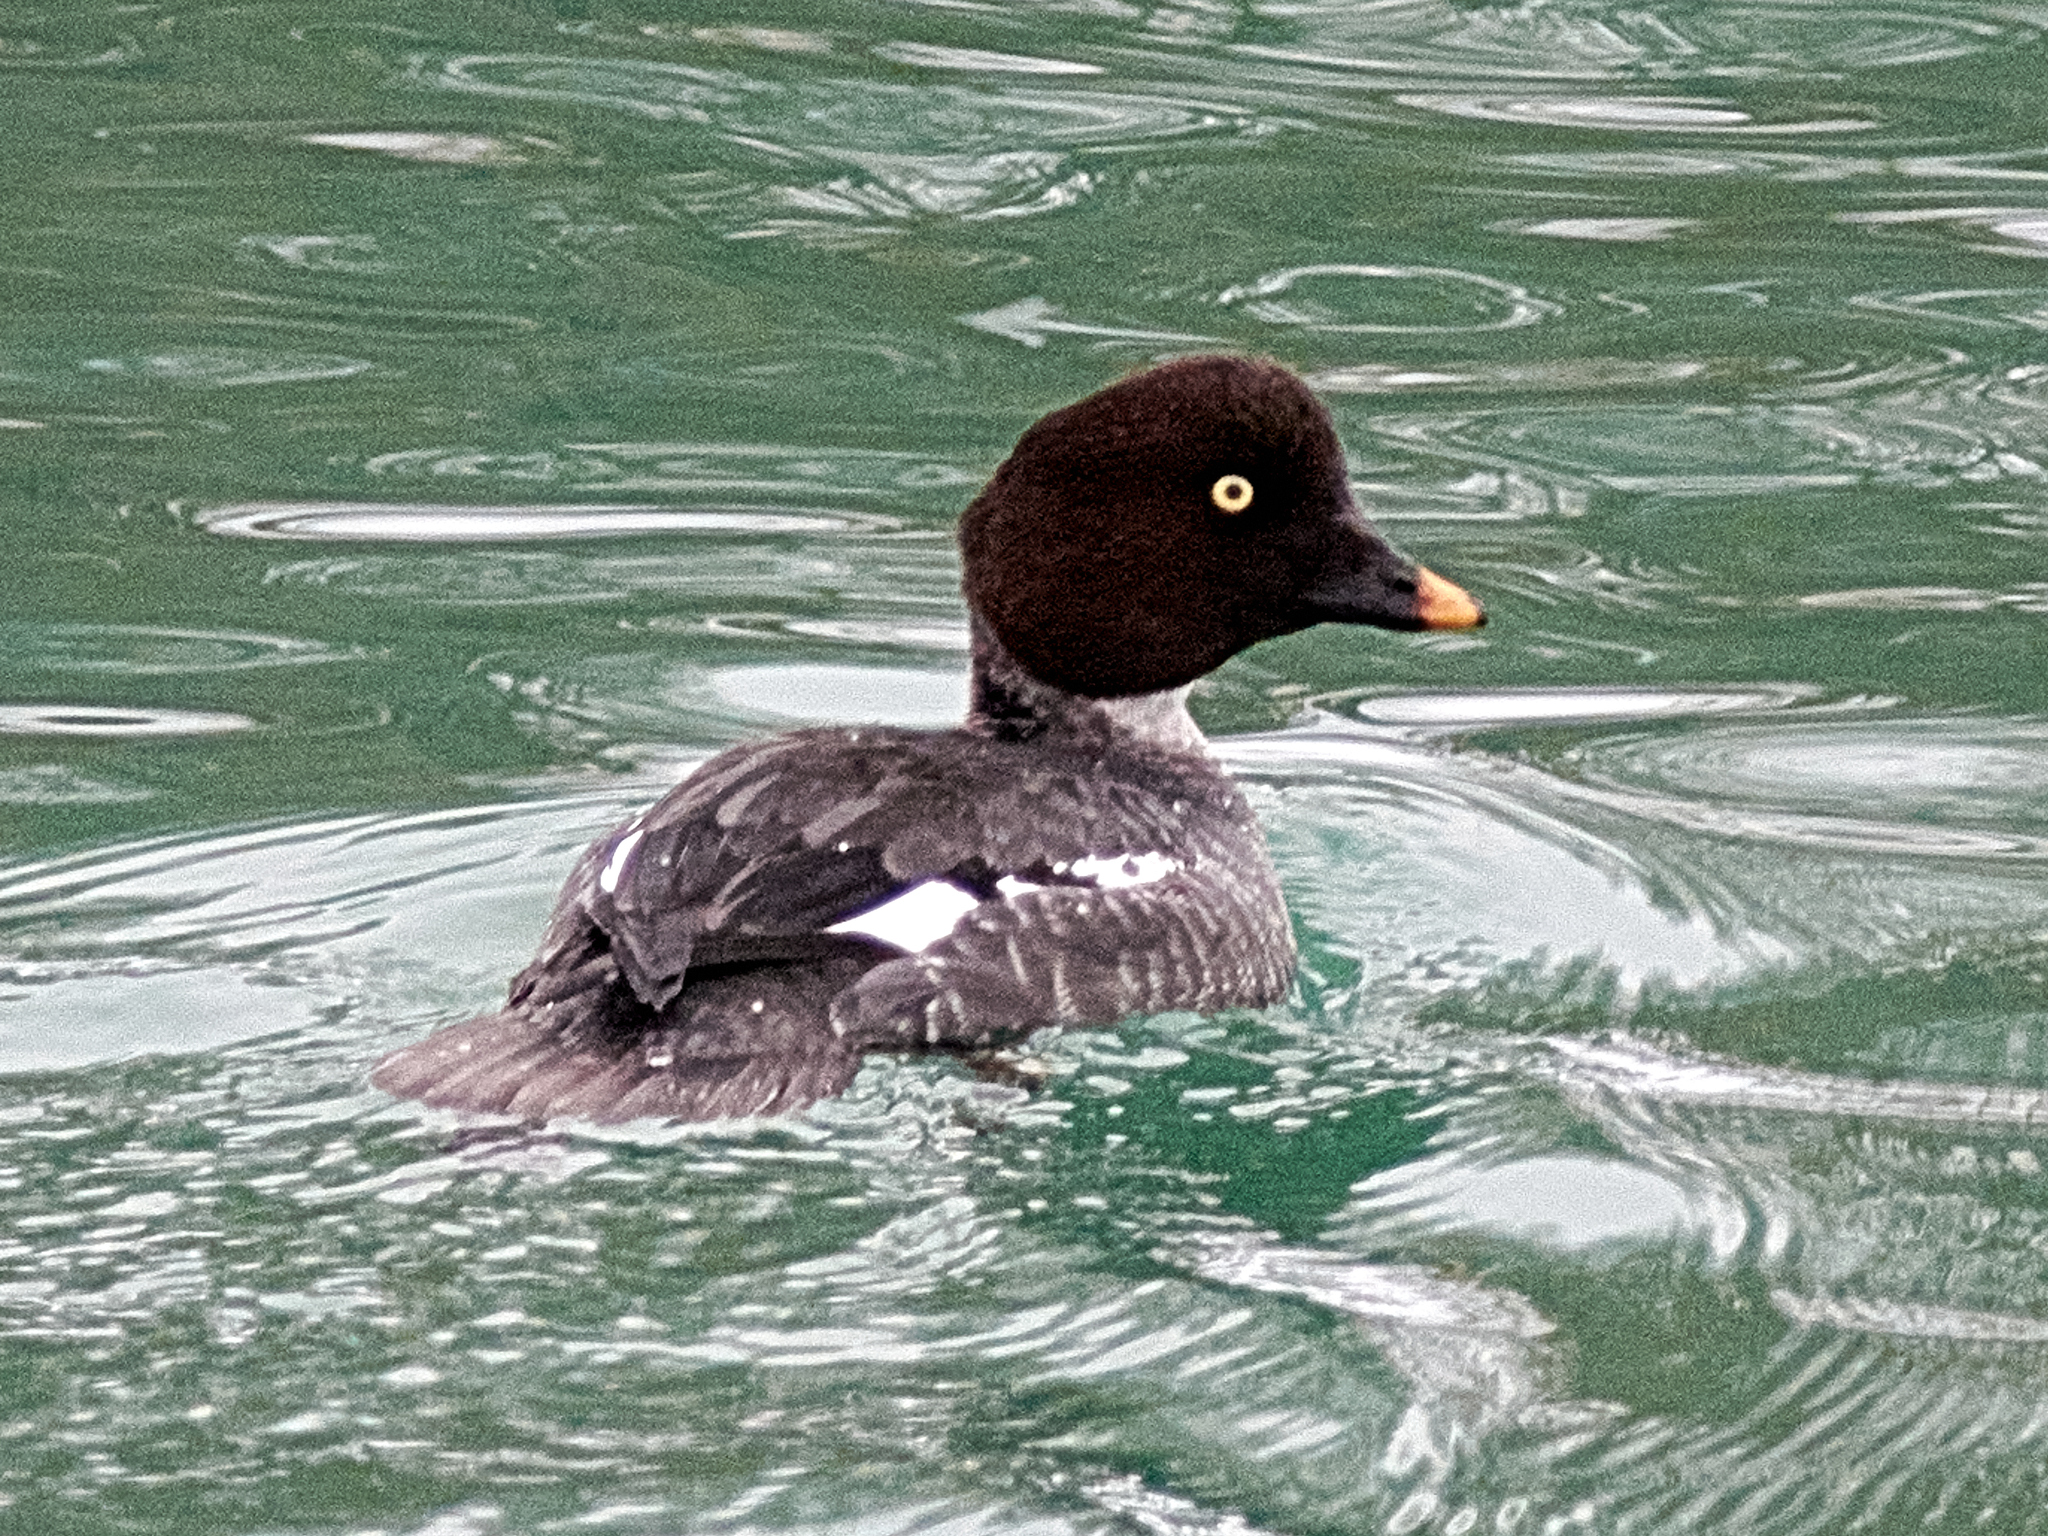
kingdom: Animalia
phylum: Chordata
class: Aves
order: Anseriformes
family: Anatidae
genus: Bucephala
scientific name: Bucephala clangula
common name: Common goldeneye
